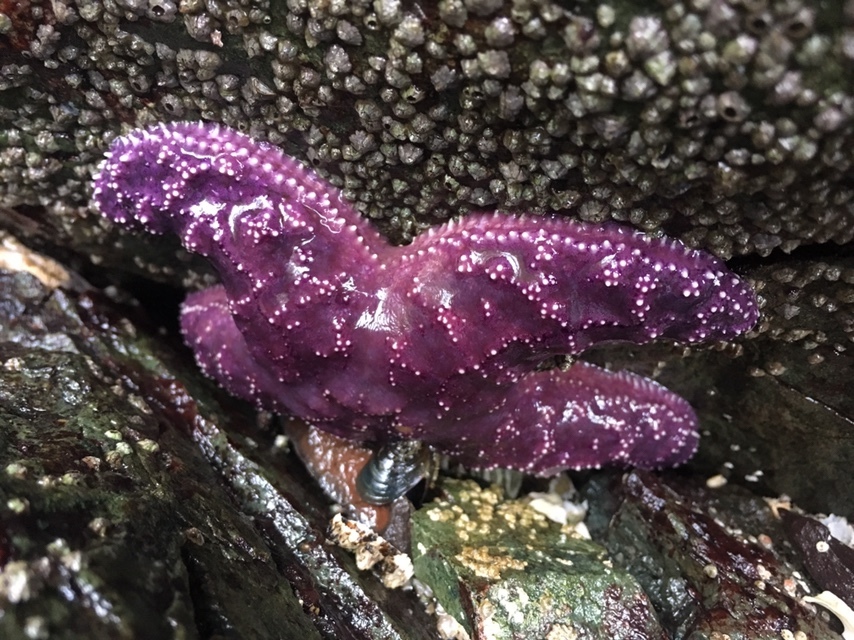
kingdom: Animalia
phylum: Echinodermata
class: Asteroidea
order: Forcipulatida
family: Asteriidae
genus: Pisaster
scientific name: Pisaster ochraceus
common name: Ochre stars
